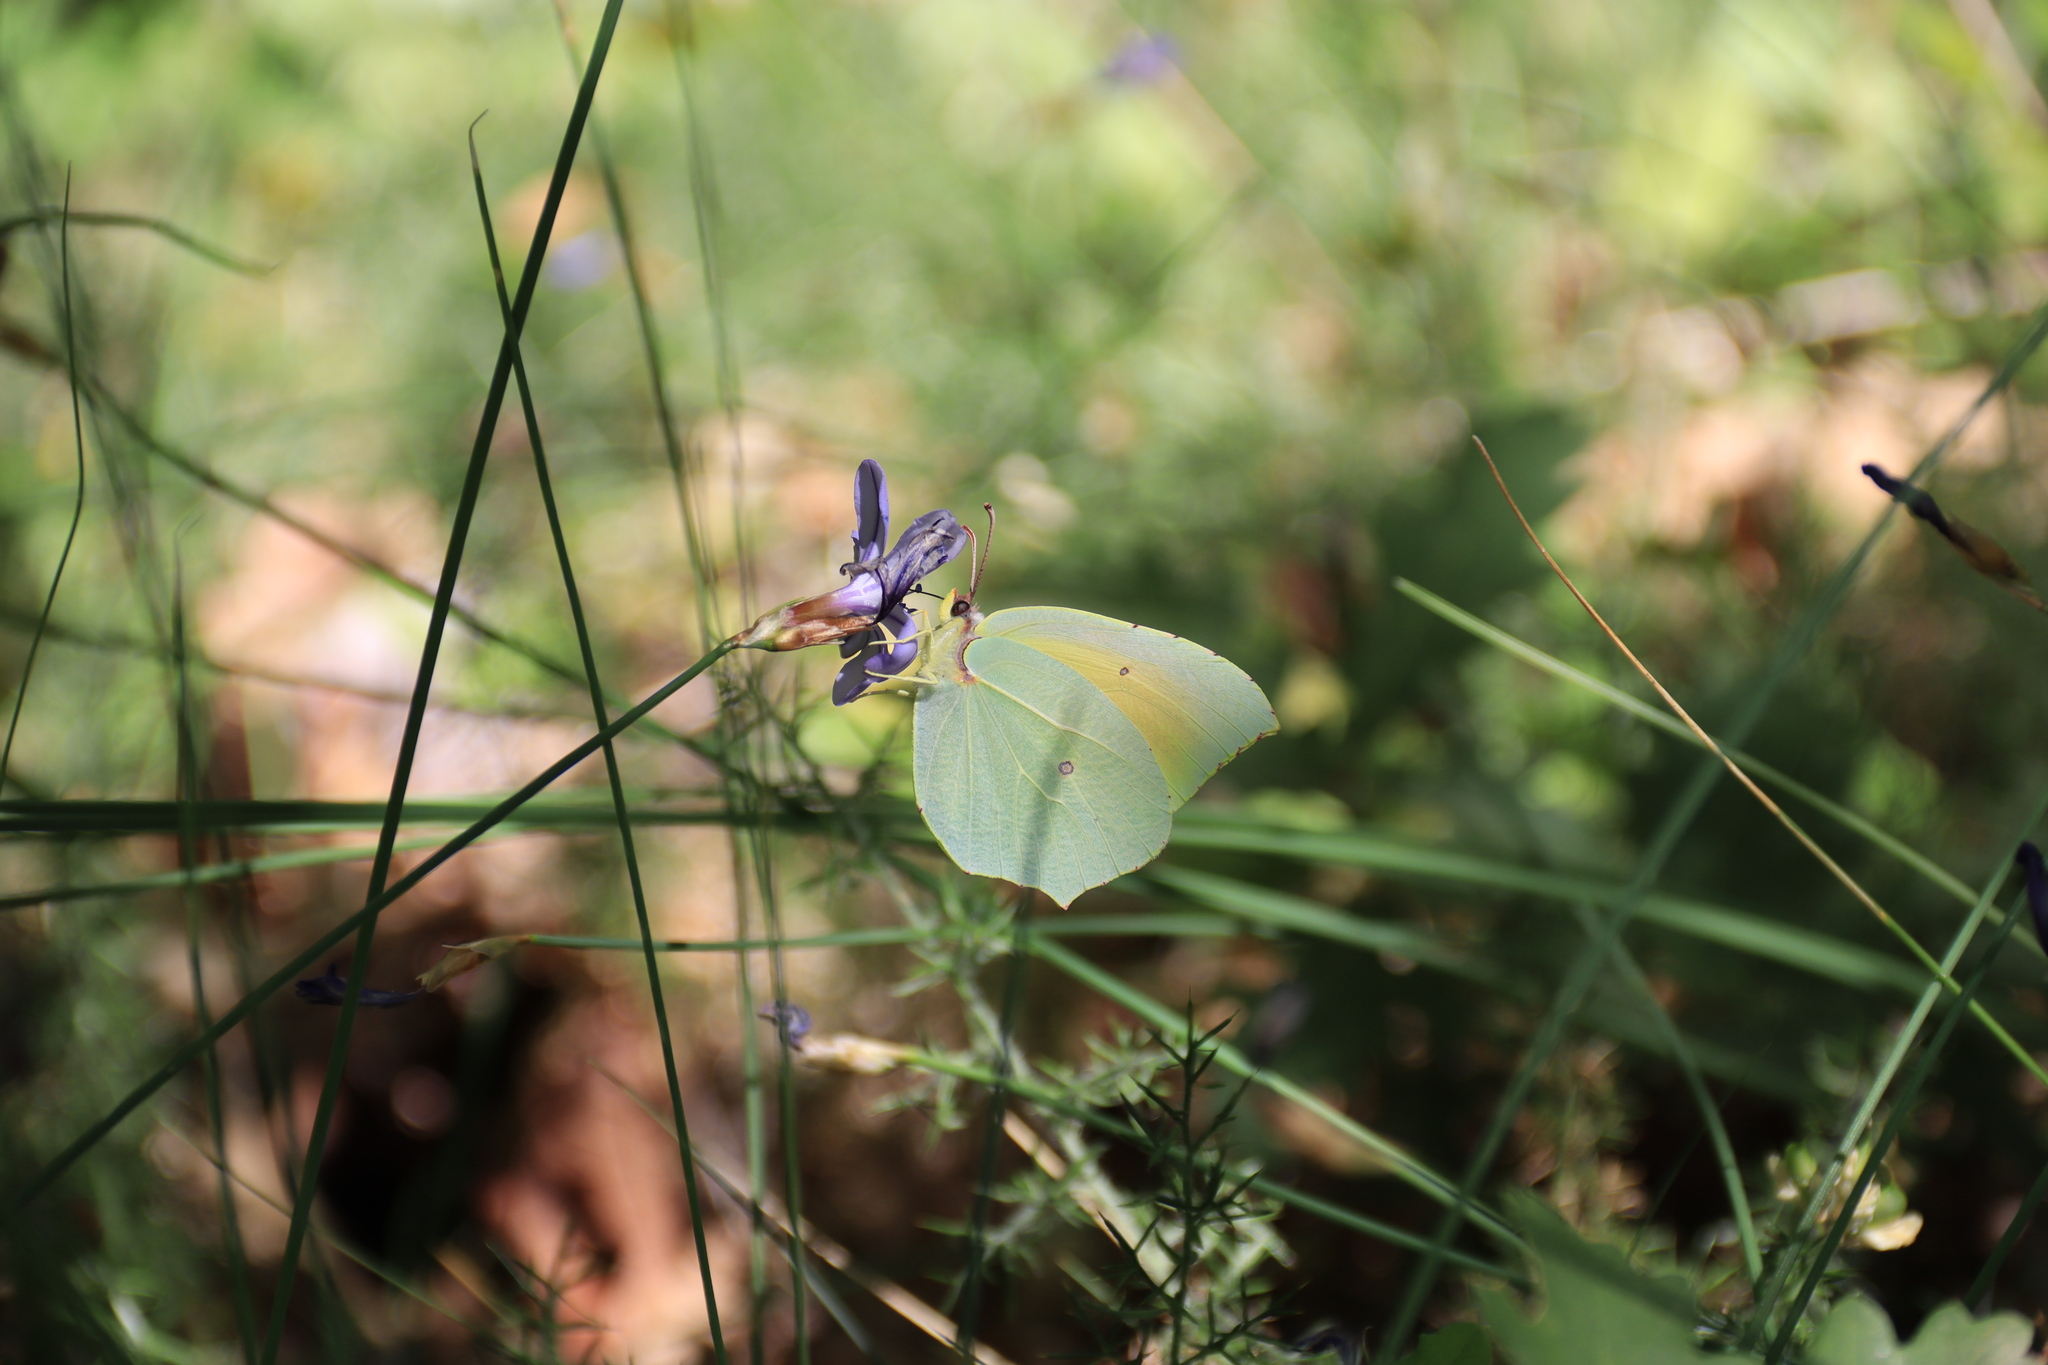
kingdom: Animalia
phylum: Arthropoda
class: Insecta
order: Lepidoptera
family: Pieridae
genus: Gonepteryx
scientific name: Gonepteryx cleopatra
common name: Cleopatra
